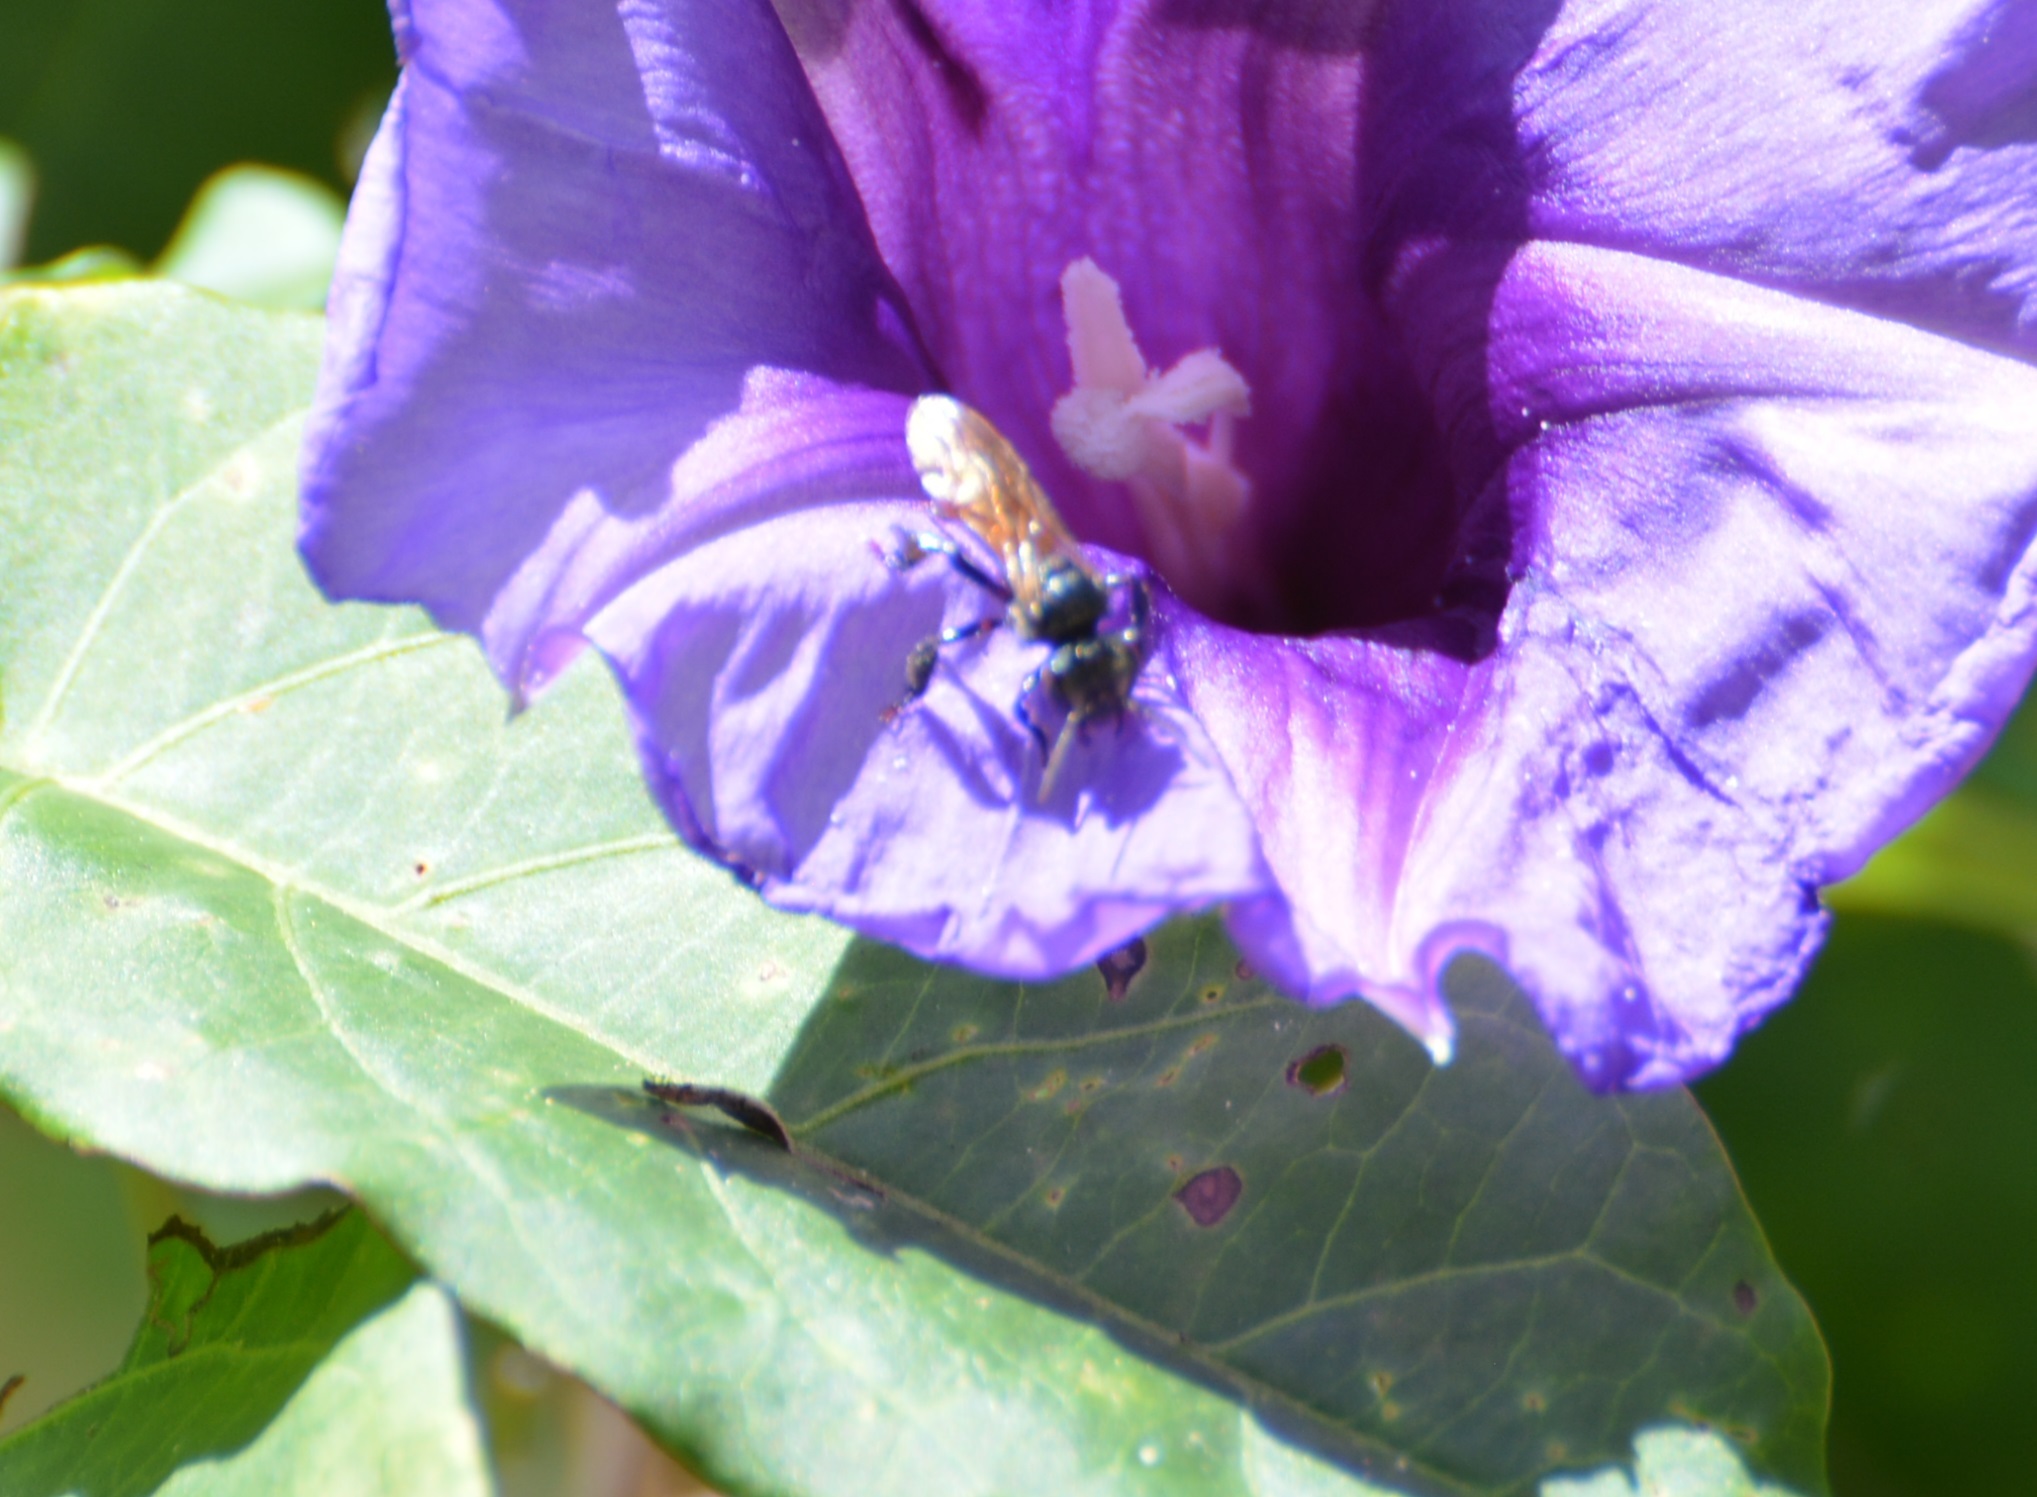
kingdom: Animalia
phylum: Arthropoda
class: Insecta
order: Hymenoptera
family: Apidae
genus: Trigona
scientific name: Trigona fulviventris
